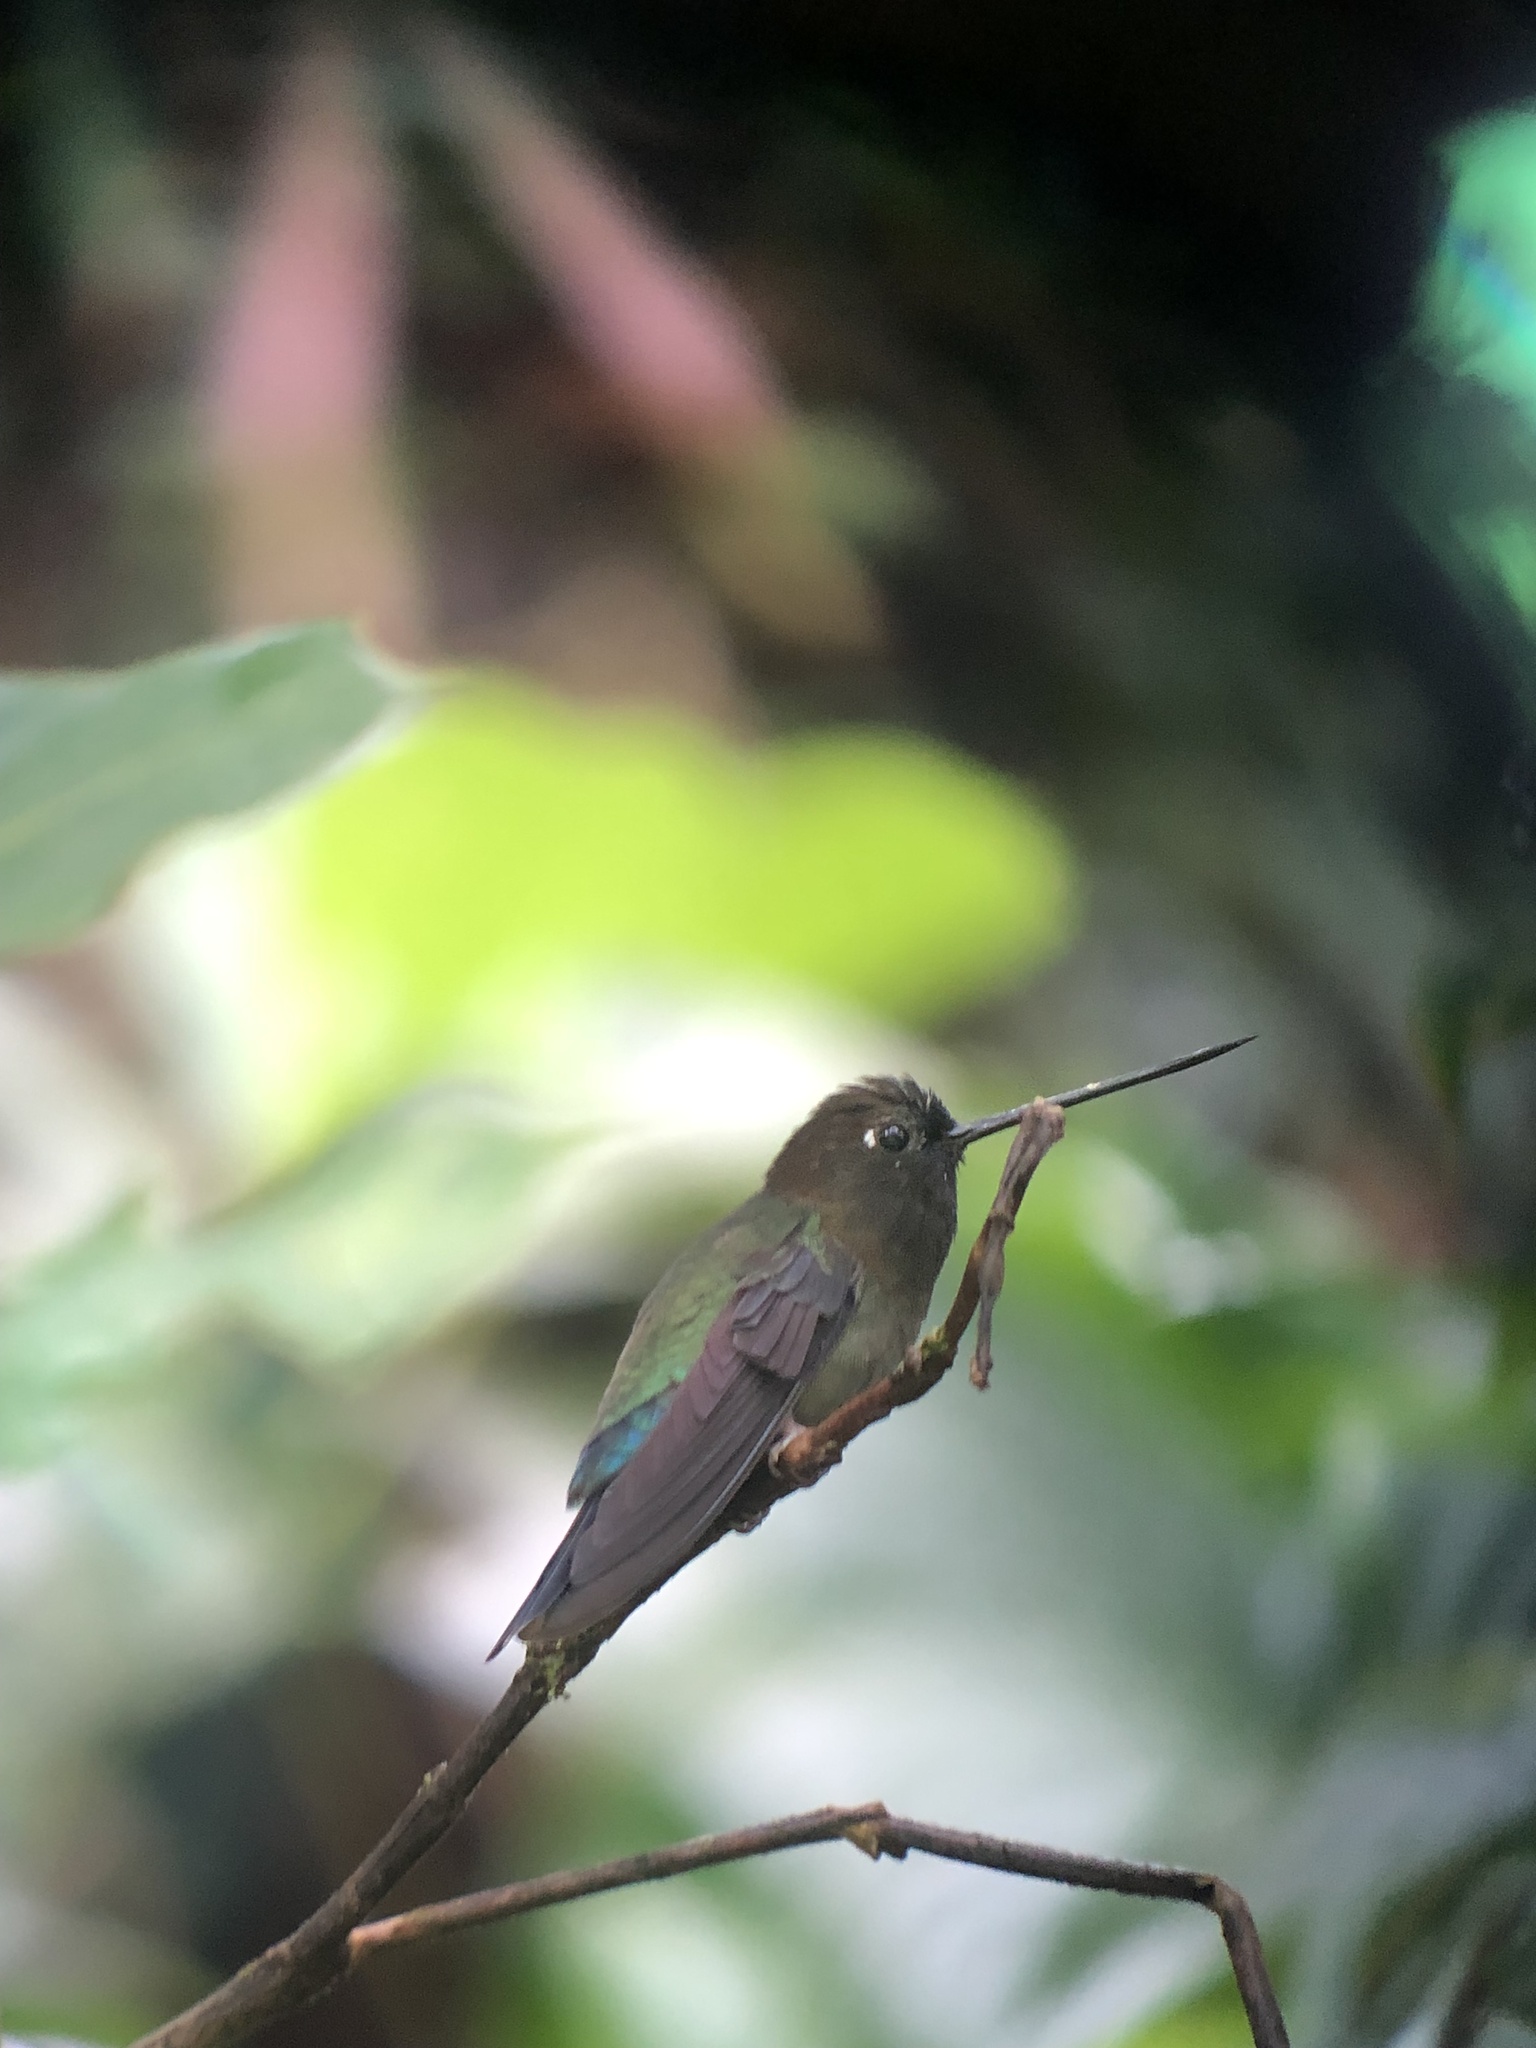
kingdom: Animalia
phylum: Chordata
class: Aves
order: Apodiformes
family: Trochilidae
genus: Doryfera
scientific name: Doryfera ludovicae
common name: Green-fronted lancebill
